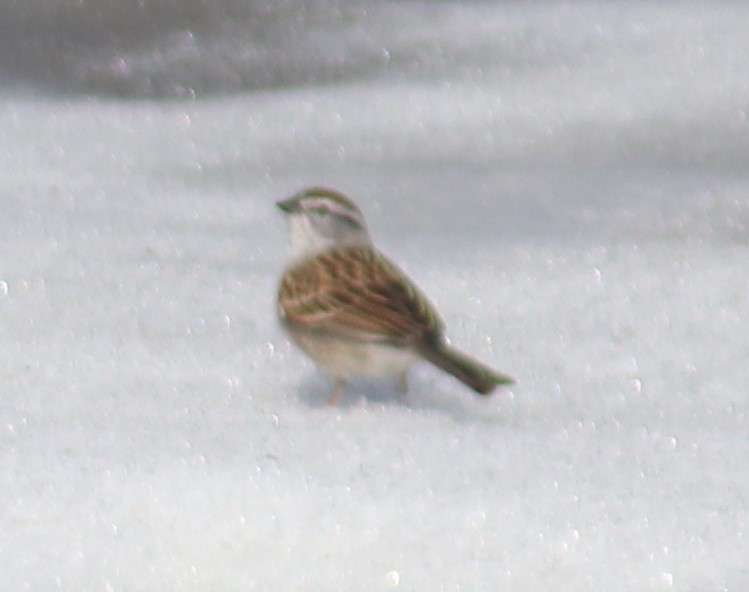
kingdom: Animalia
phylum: Chordata
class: Aves
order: Passeriformes
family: Passerellidae
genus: Spizella
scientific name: Spizella passerina
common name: Chipping sparrow
